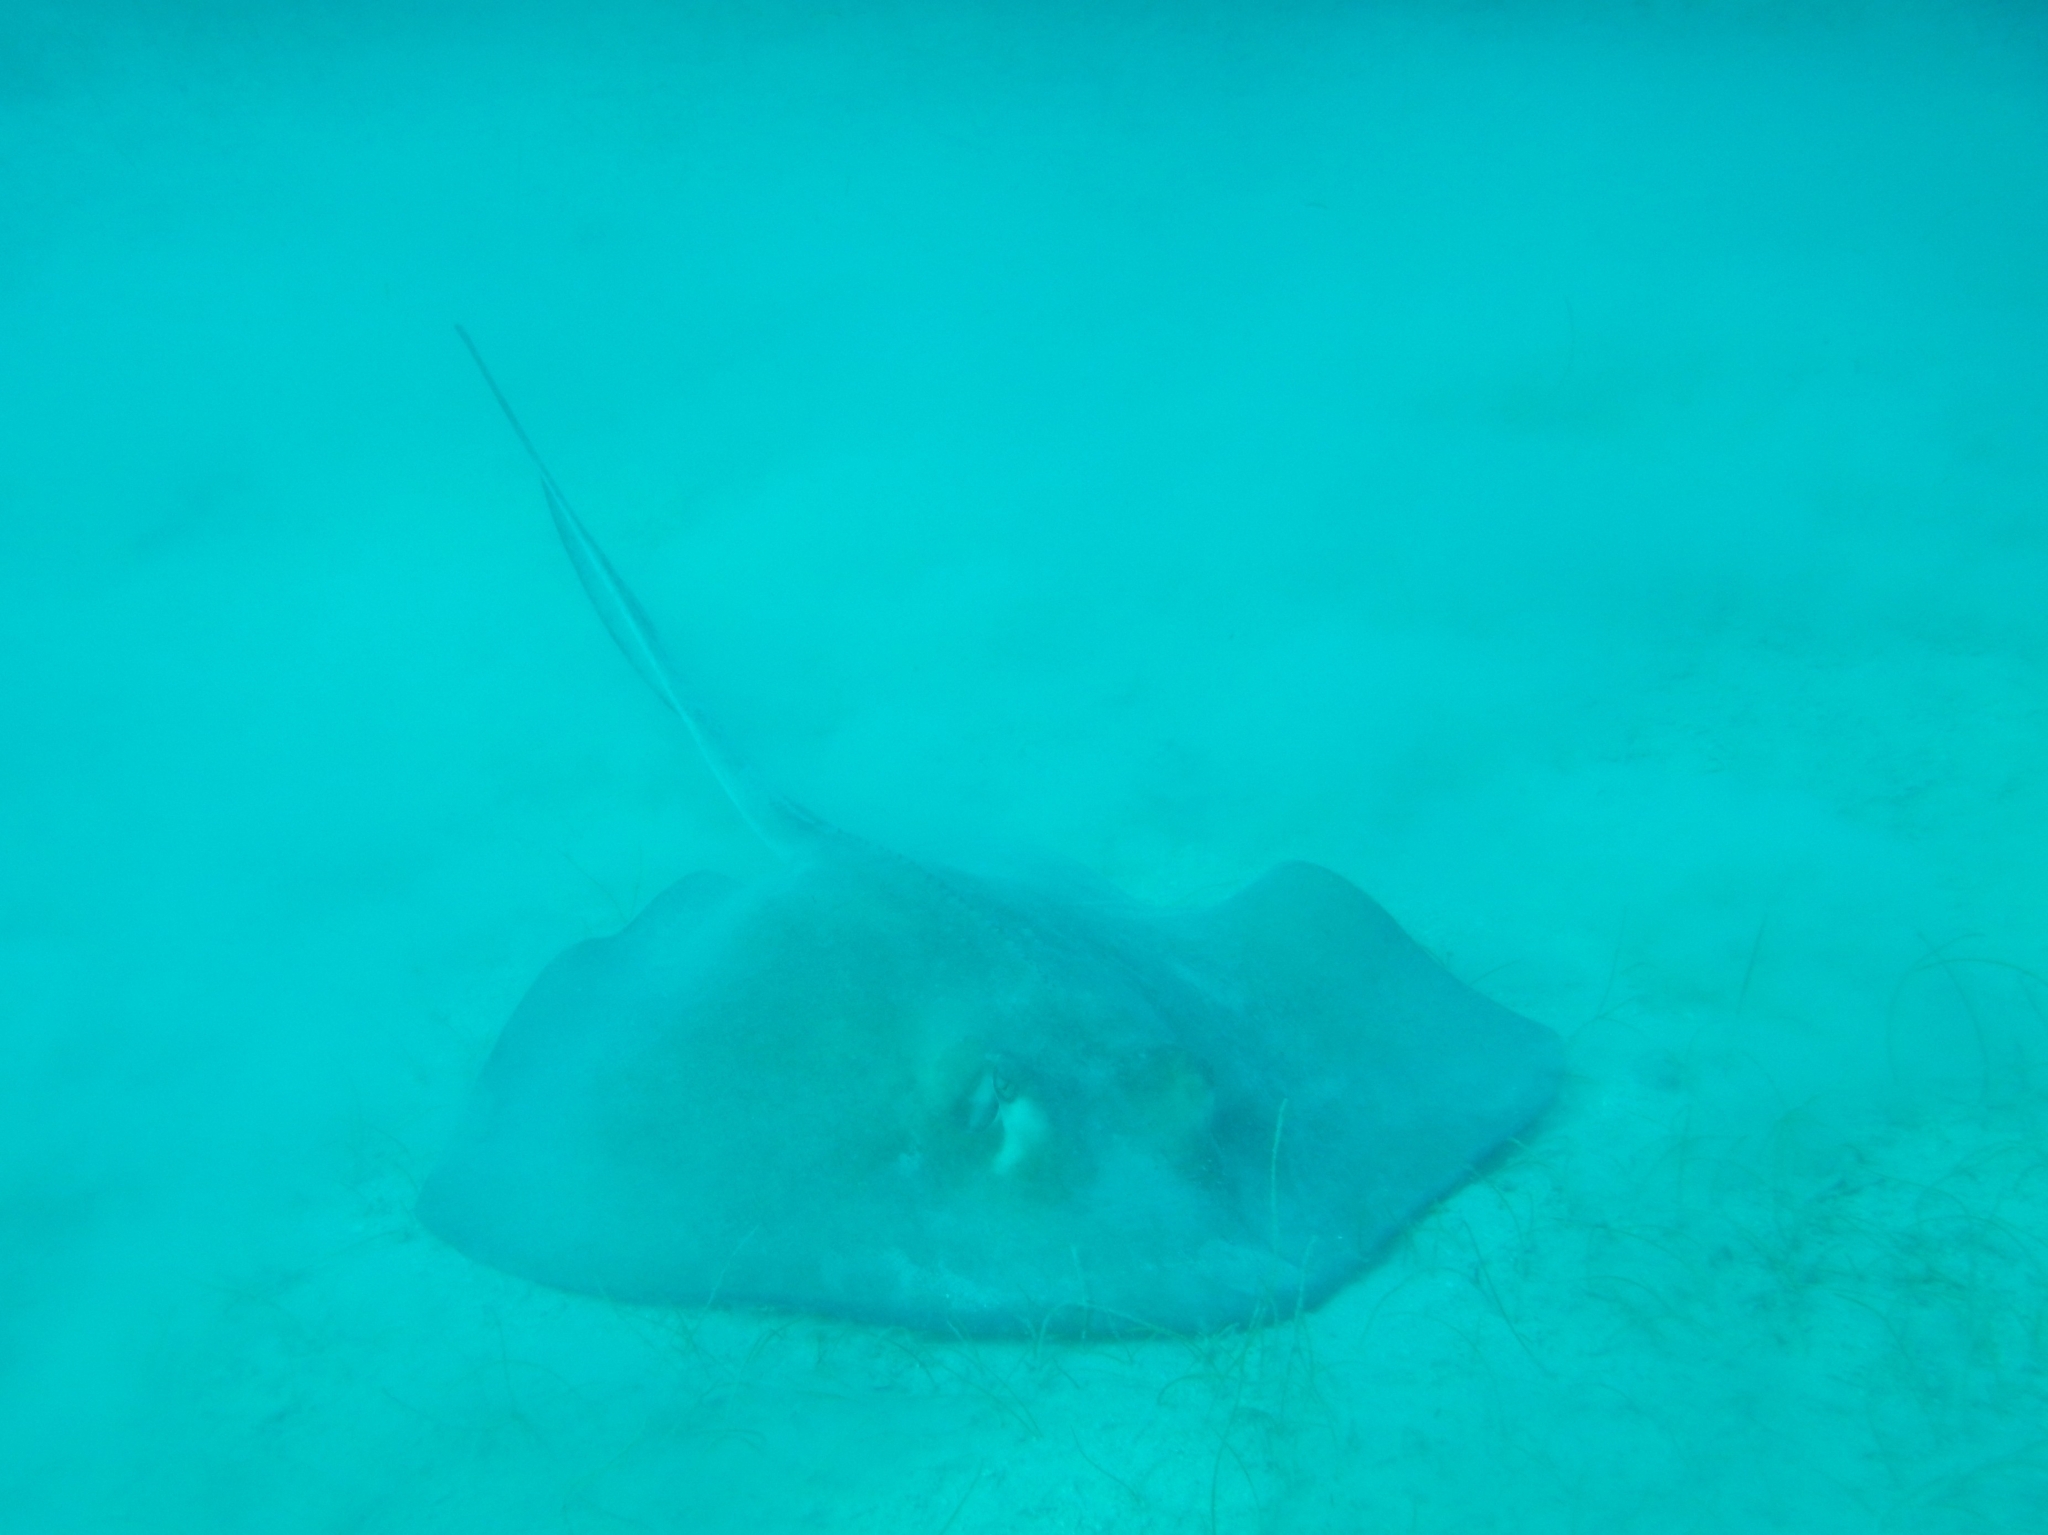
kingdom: Animalia
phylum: Chordata
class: Elasmobranchii
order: Myliobatiformes
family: Dasyatidae
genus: Hypanus
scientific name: Hypanus americanus
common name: Southern stingray
